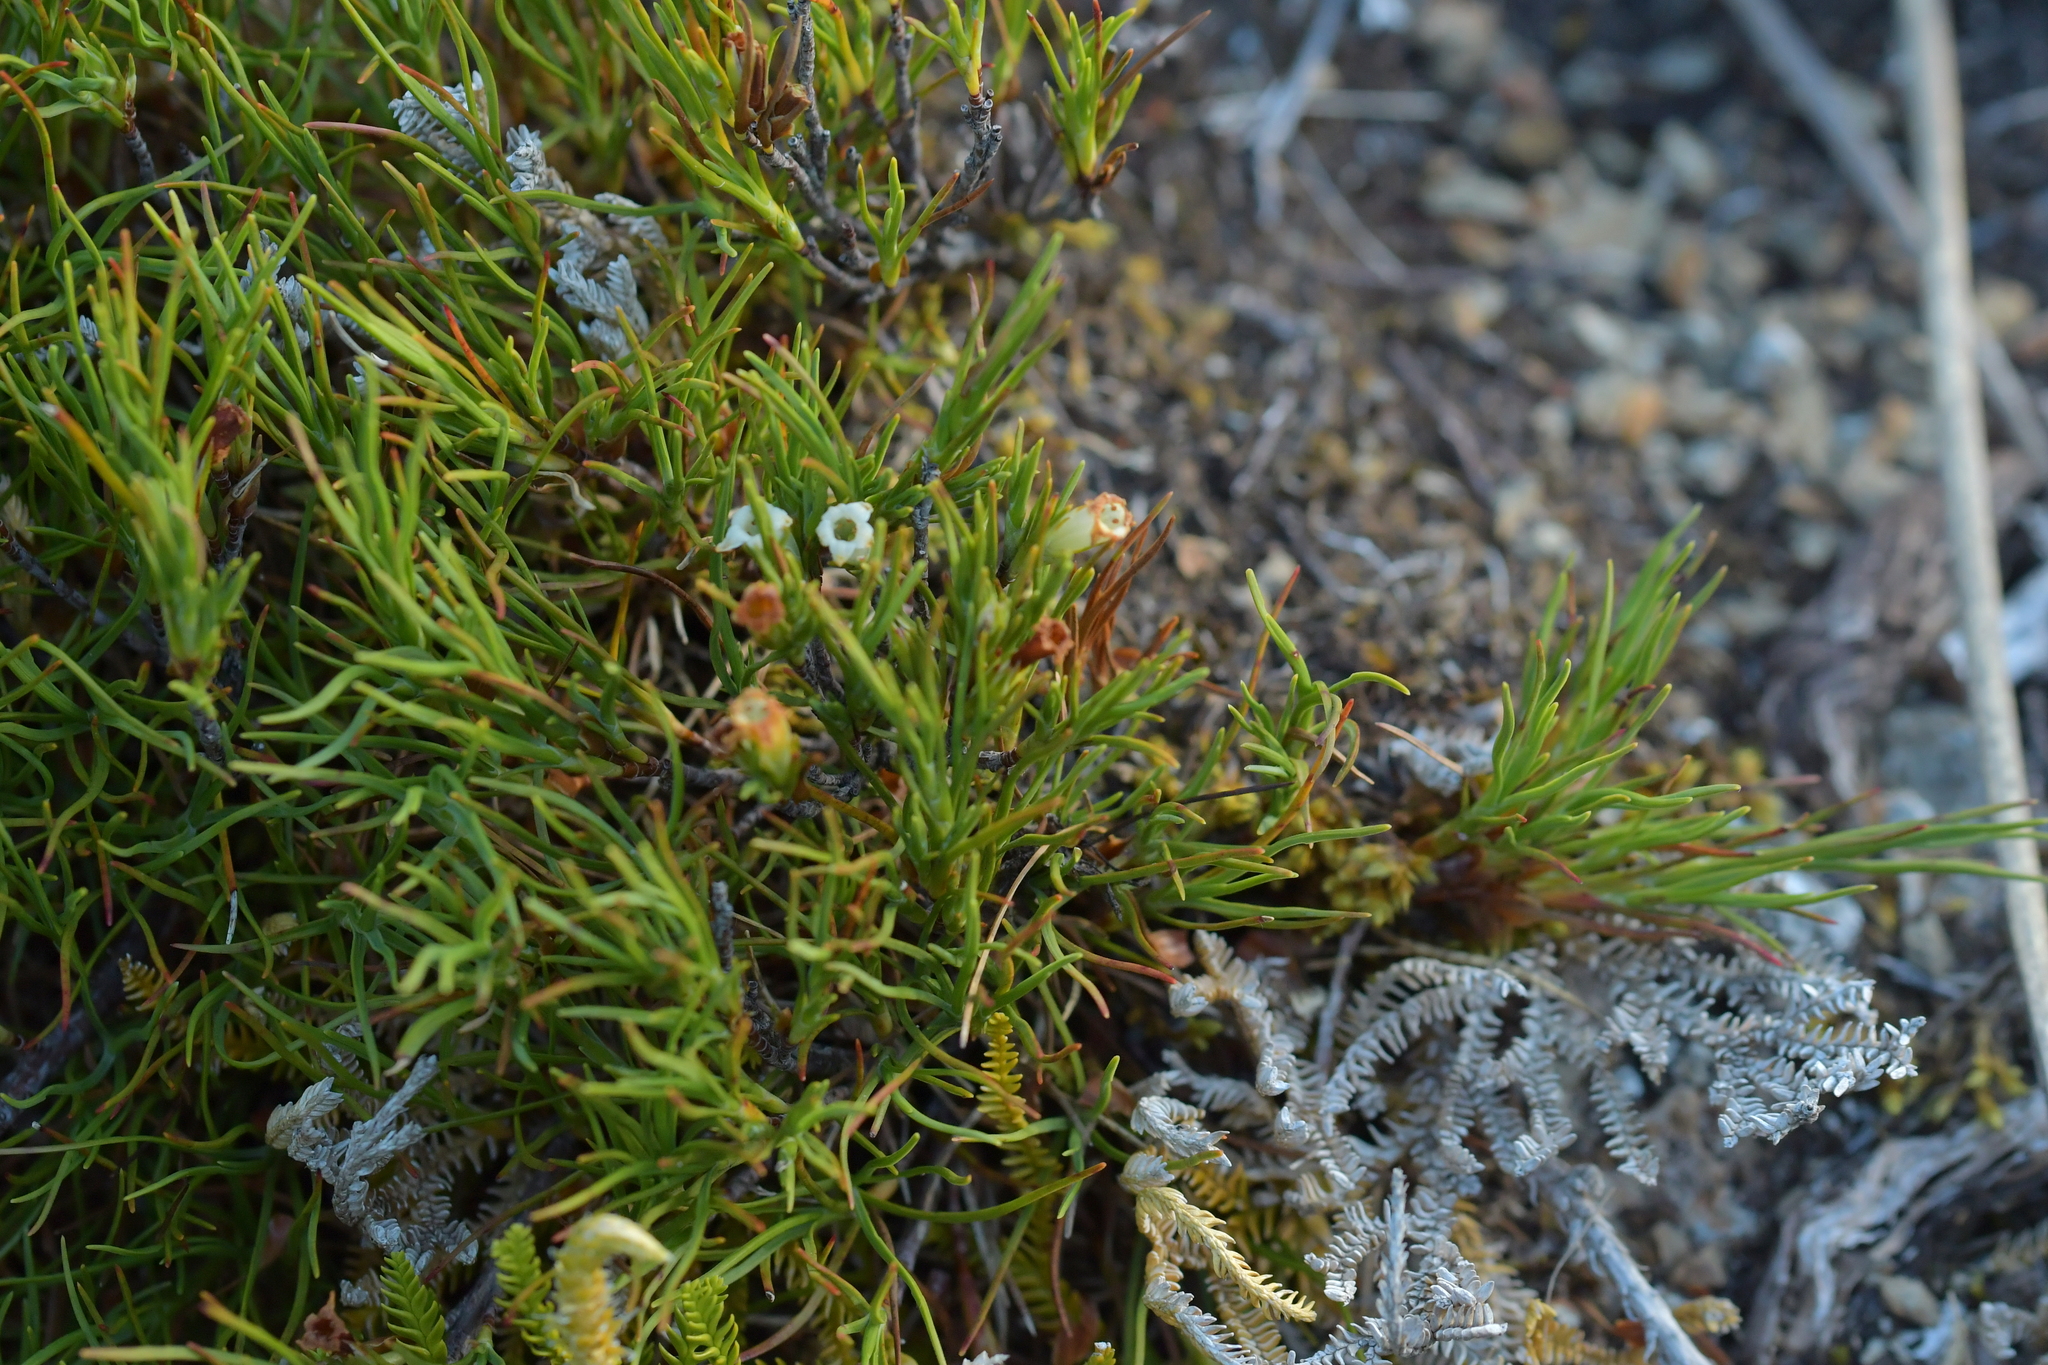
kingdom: Plantae
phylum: Tracheophyta
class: Magnoliopsida
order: Ericales
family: Ericaceae
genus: Dracophyllum
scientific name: Dracophyllum rosmarinifolium
